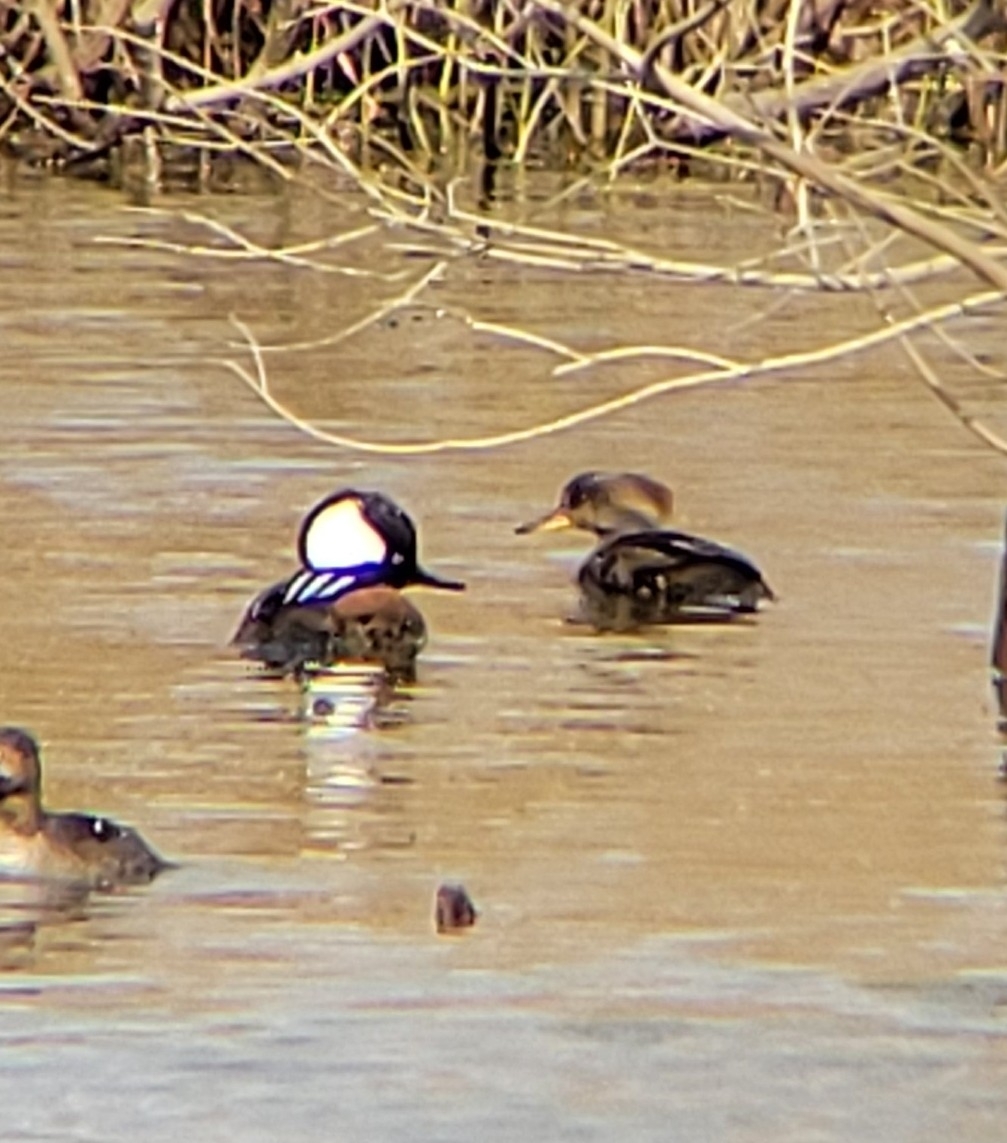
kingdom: Animalia
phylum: Chordata
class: Aves
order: Anseriformes
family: Anatidae
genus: Lophodytes
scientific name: Lophodytes cucullatus
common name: Hooded merganser
